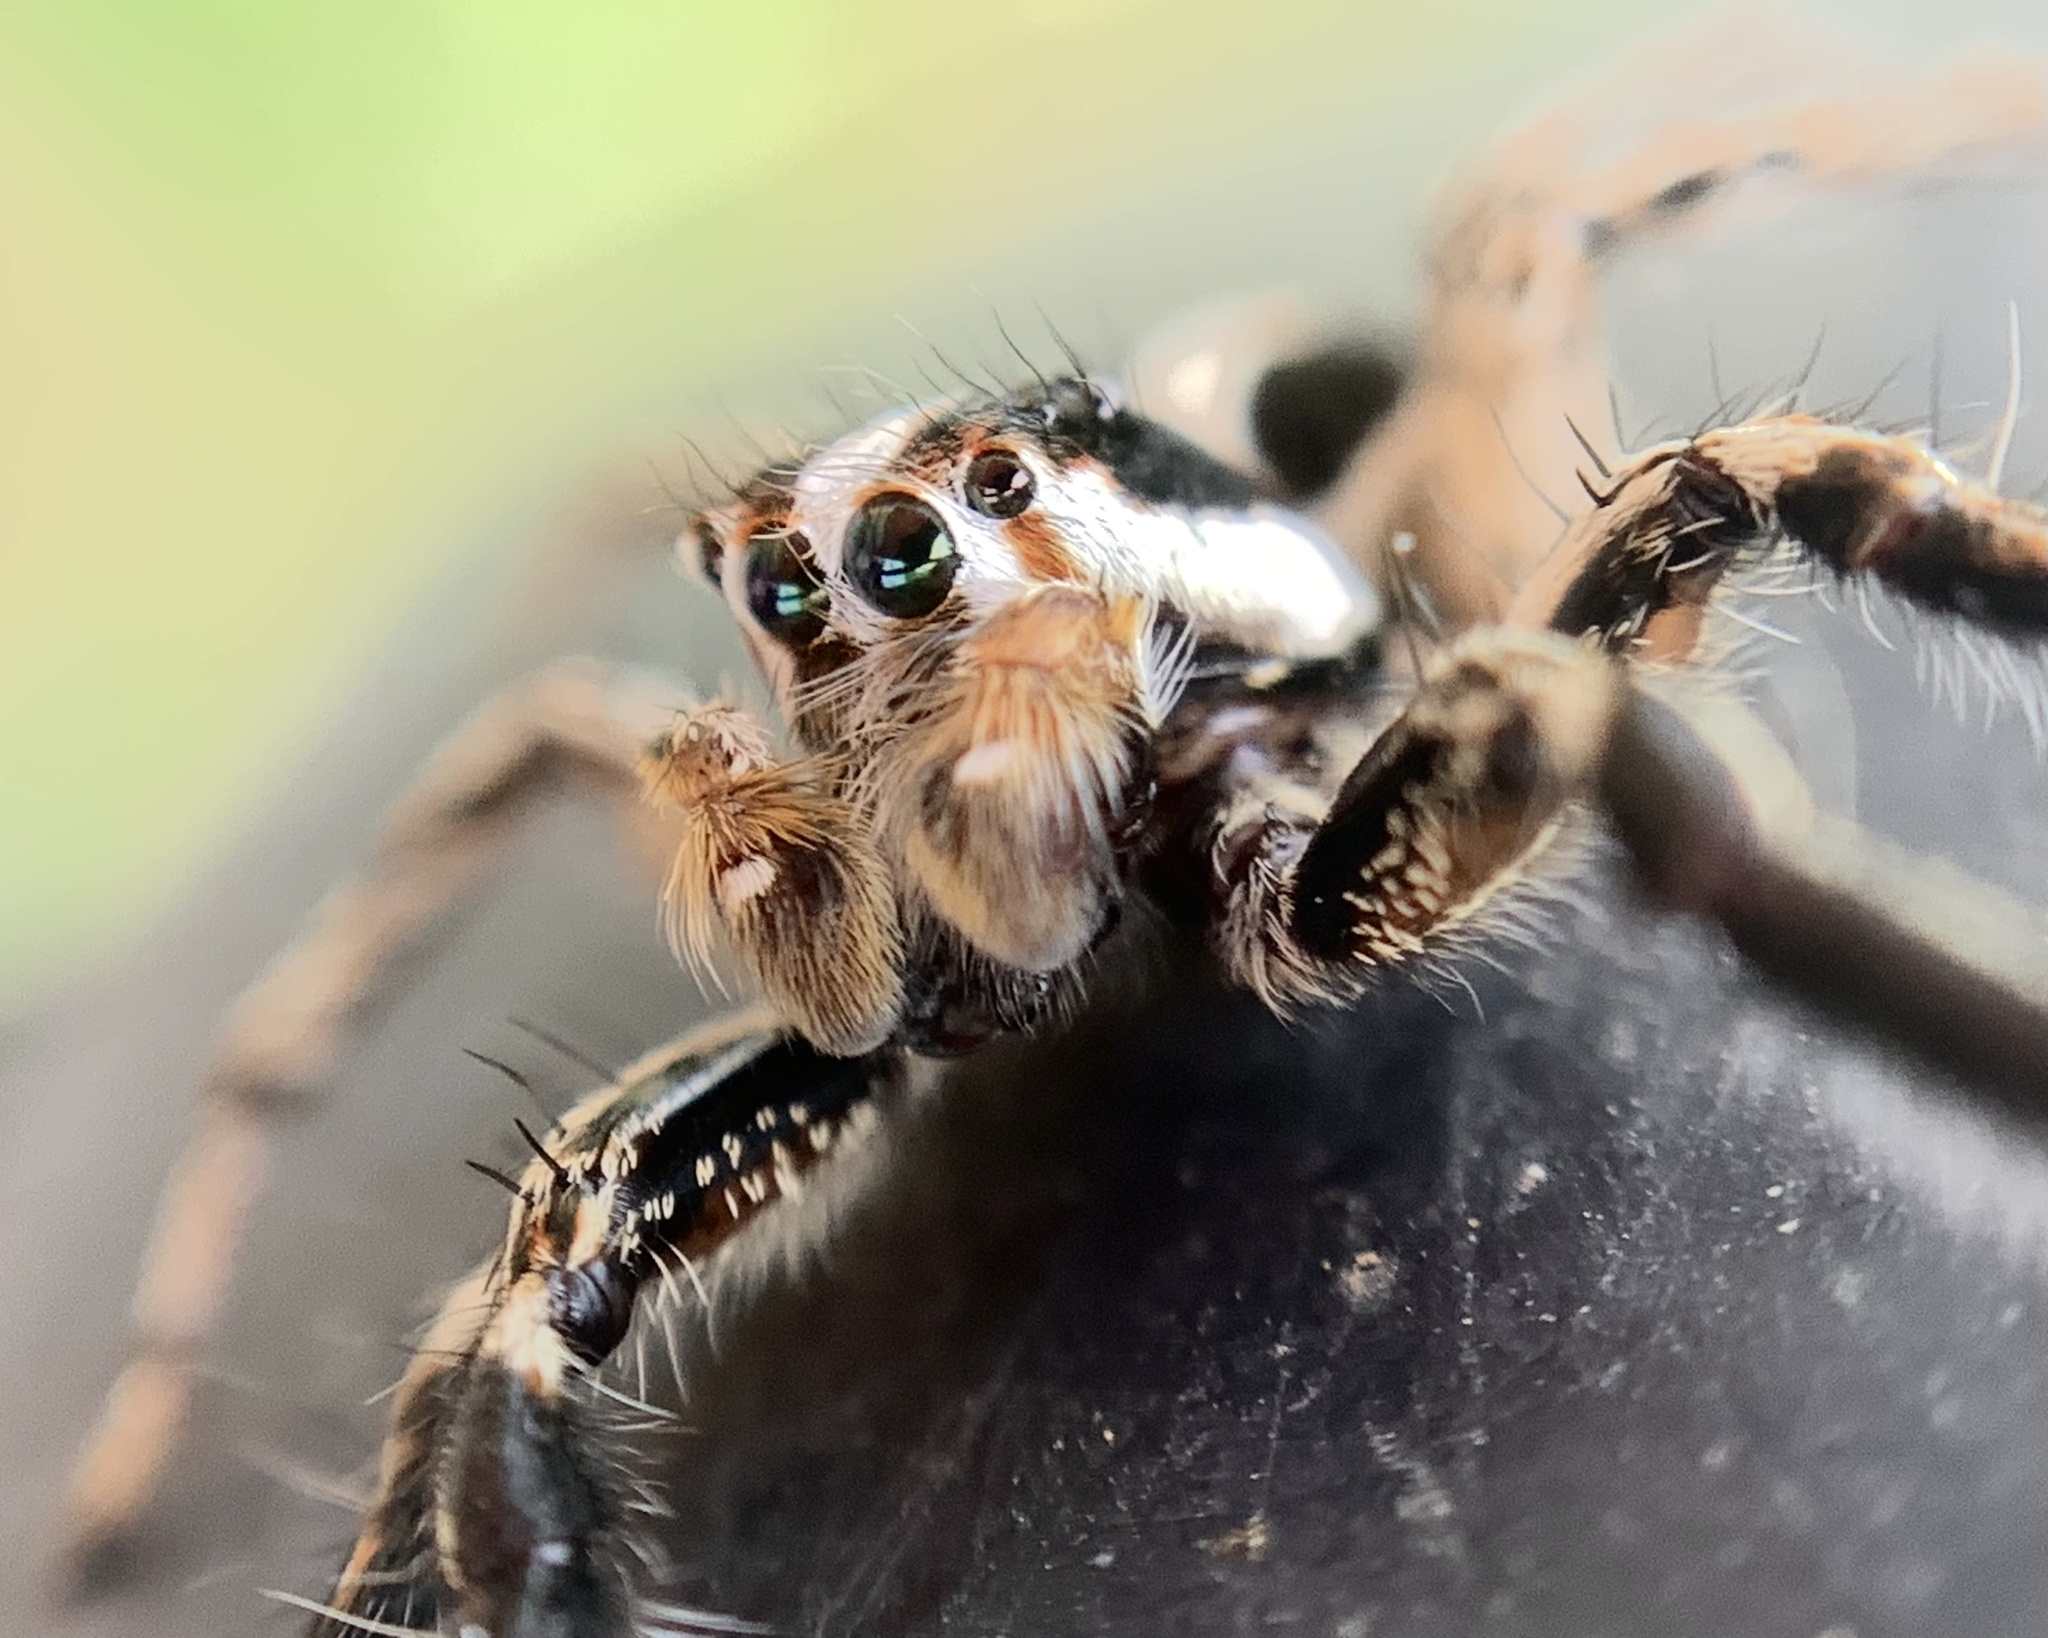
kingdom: Animalia
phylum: Arthropoda
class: Arachnida
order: Araneae
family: Salticidae
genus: Plexippus
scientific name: Plexippus paykulli
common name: Pantropical jumper
